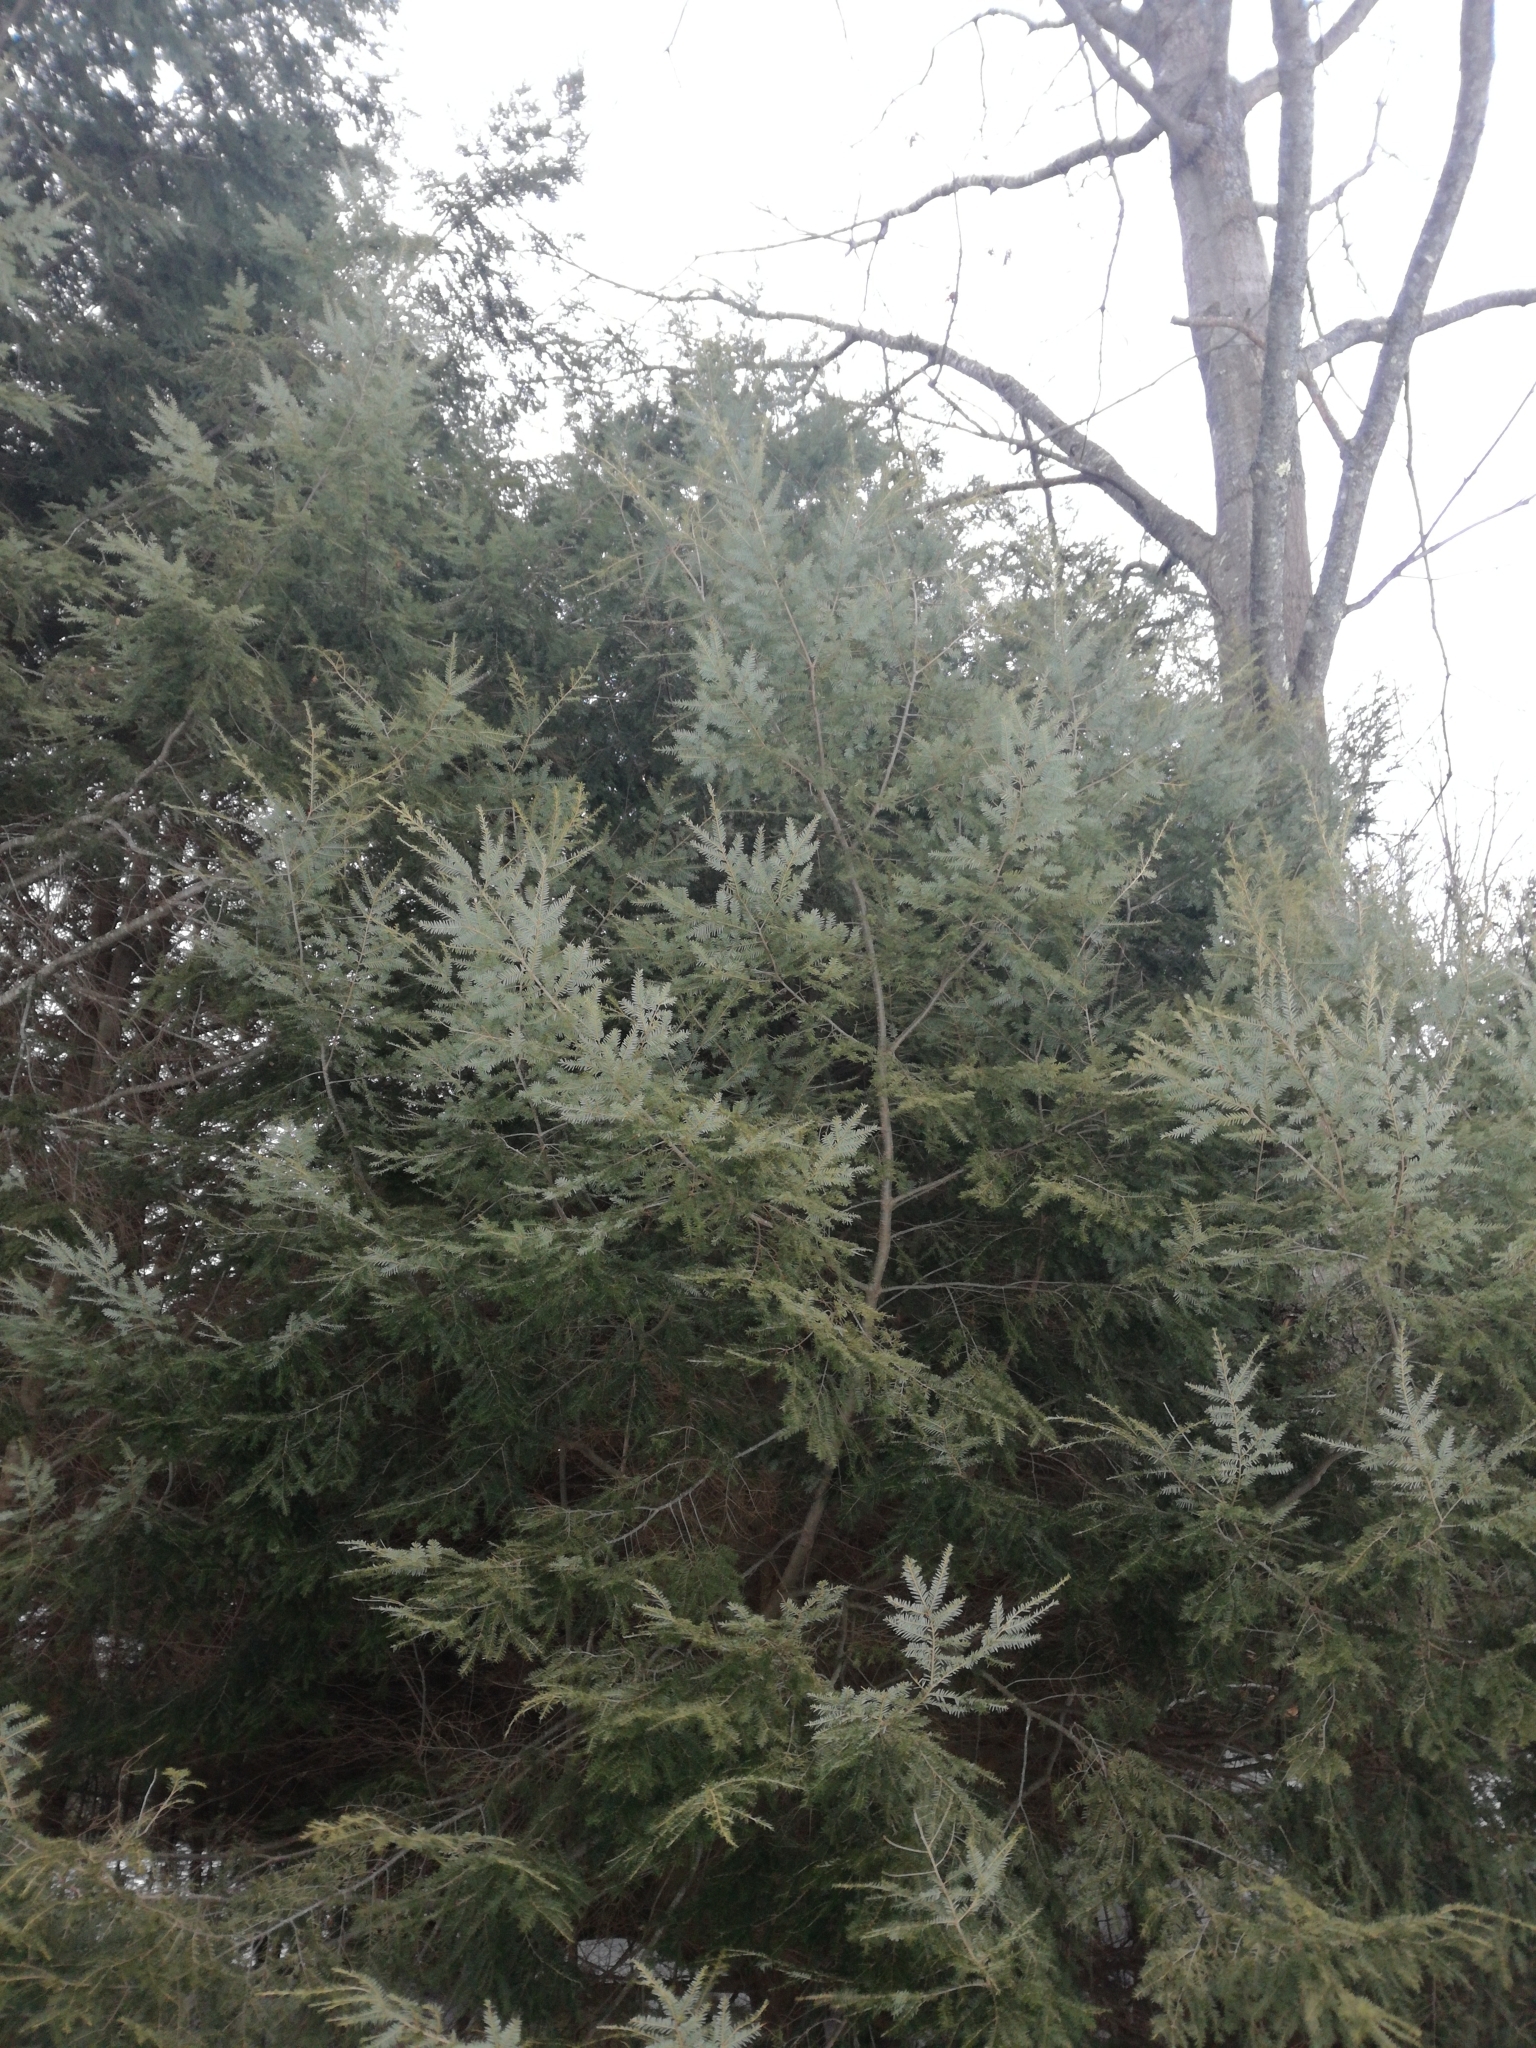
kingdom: Plantae
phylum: Tracheophyta
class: Pinopsida
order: Pinales
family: Pinaceae
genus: Tsuga
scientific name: Tsuga canadensis
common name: Eastern hemlock
